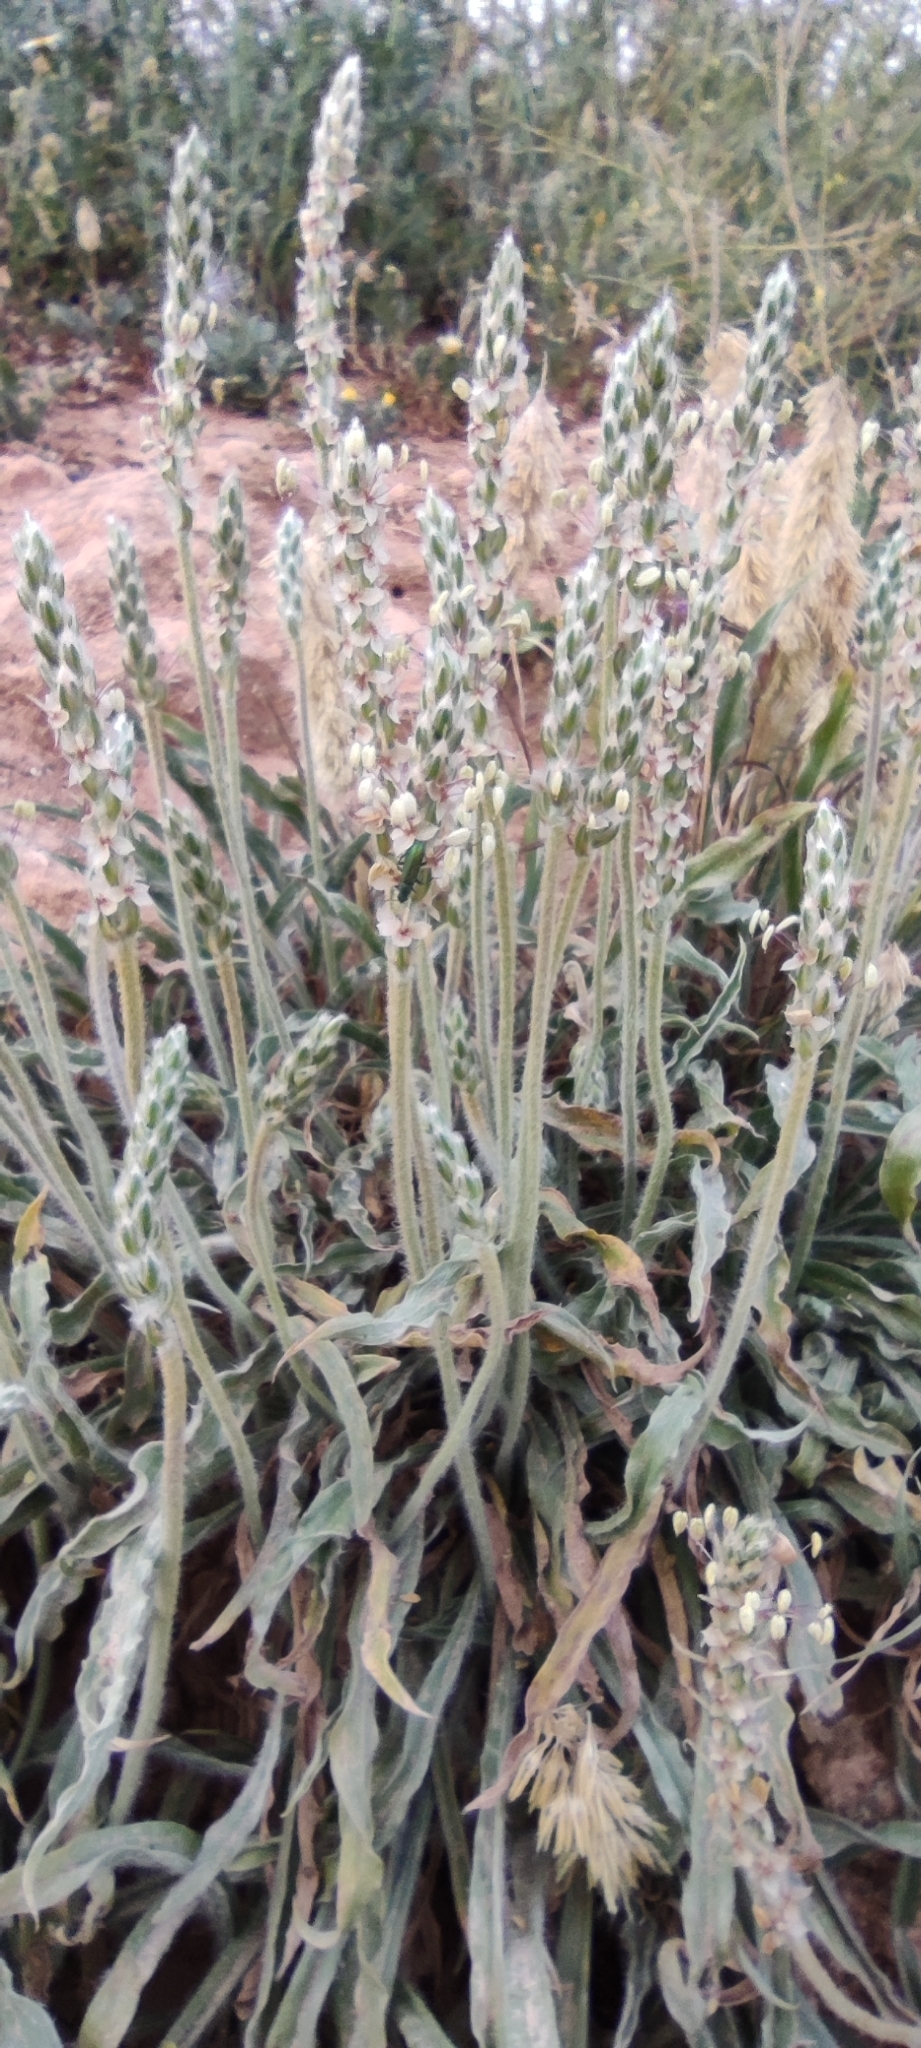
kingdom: Plantae
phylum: Tracheophyta
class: Magnoliopsida
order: Lamiales
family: Plantaginaceae
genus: Plantago
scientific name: Plantago albicans
